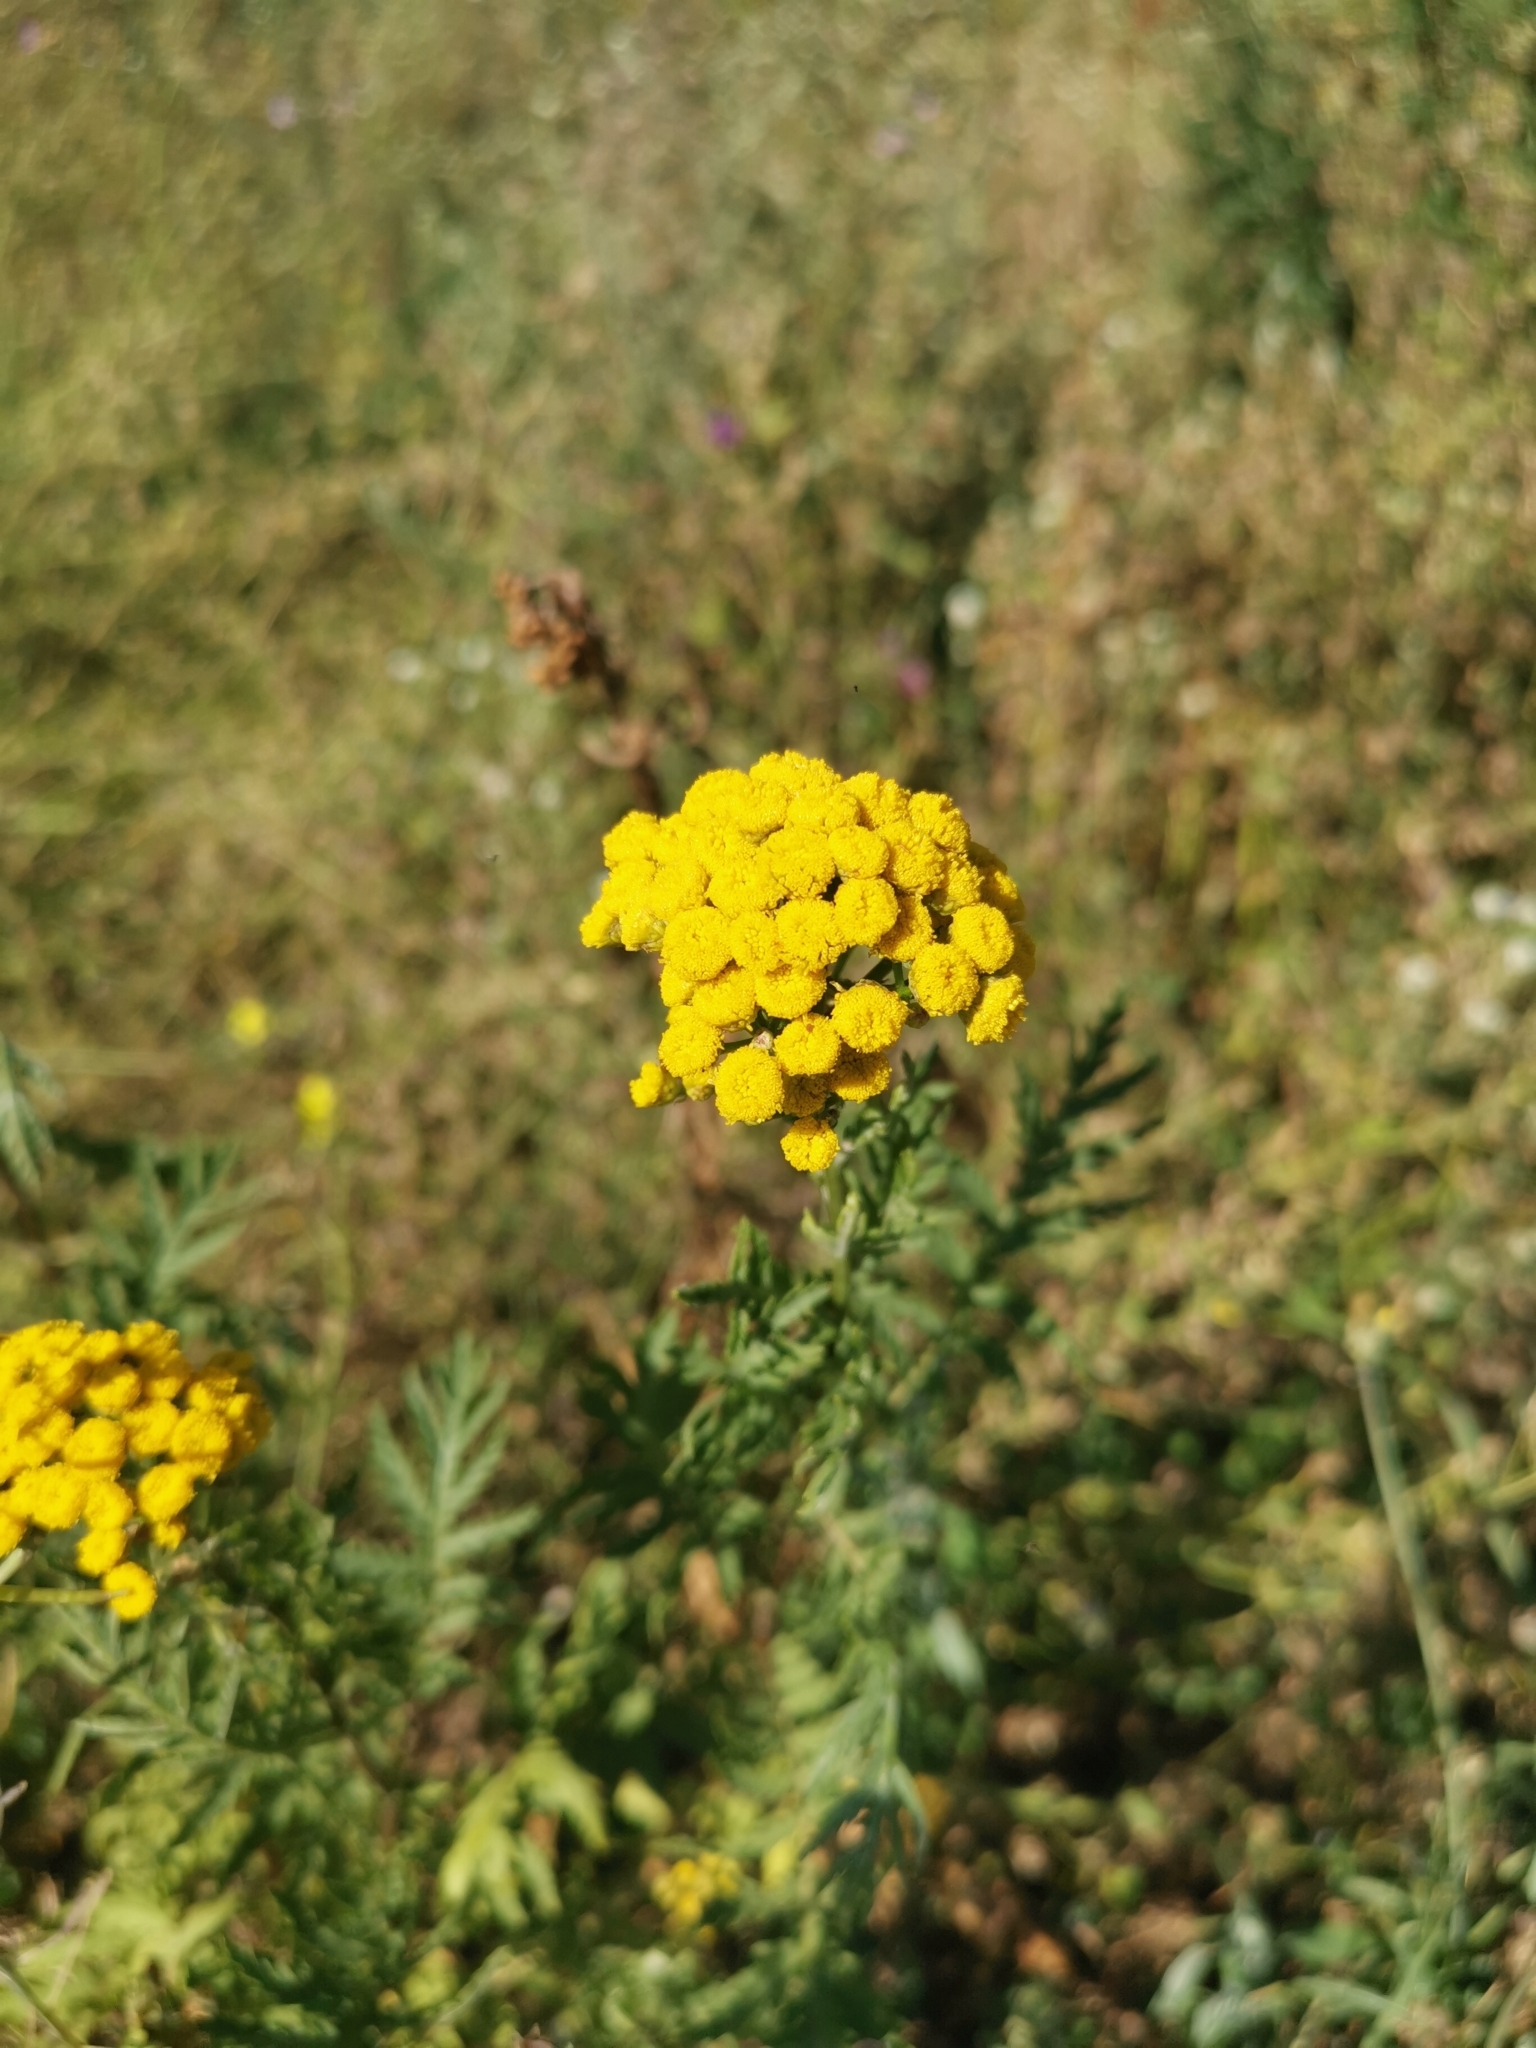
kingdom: Plantae
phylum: Tracheophyta
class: Magnoliopsida
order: Asterales
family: Asteraceae
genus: Tanacetum
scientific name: Tanacetum vulgare
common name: Common tansy
